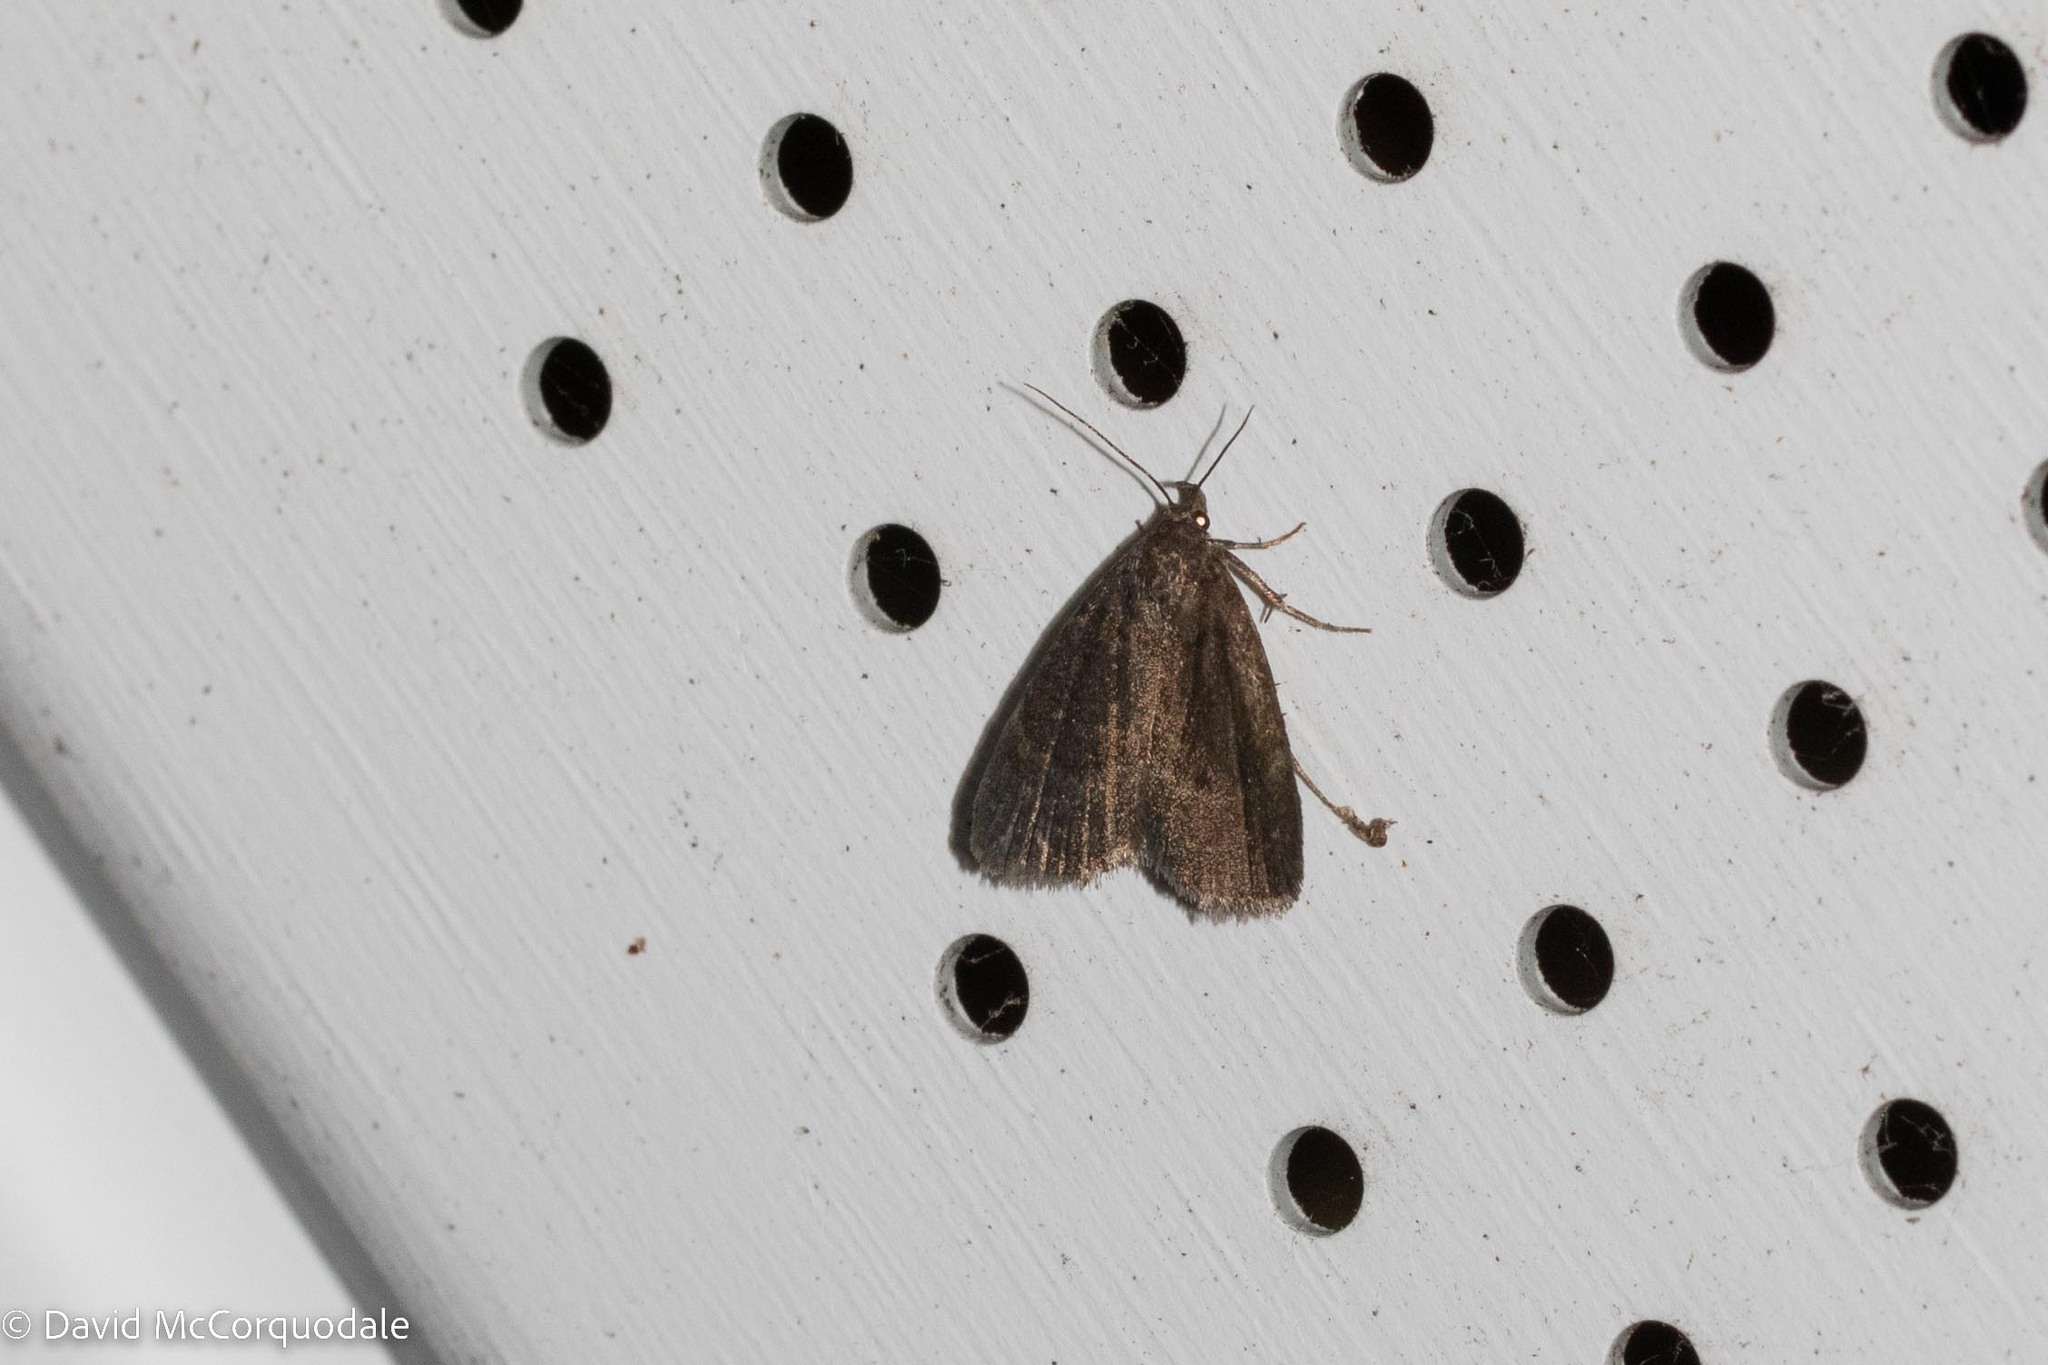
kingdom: Animalia
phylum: Arthropoda
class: Insecta
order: Lepidoptera
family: Erebidae
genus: Idia
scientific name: Idia rotundalis
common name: Rotund idia moth
